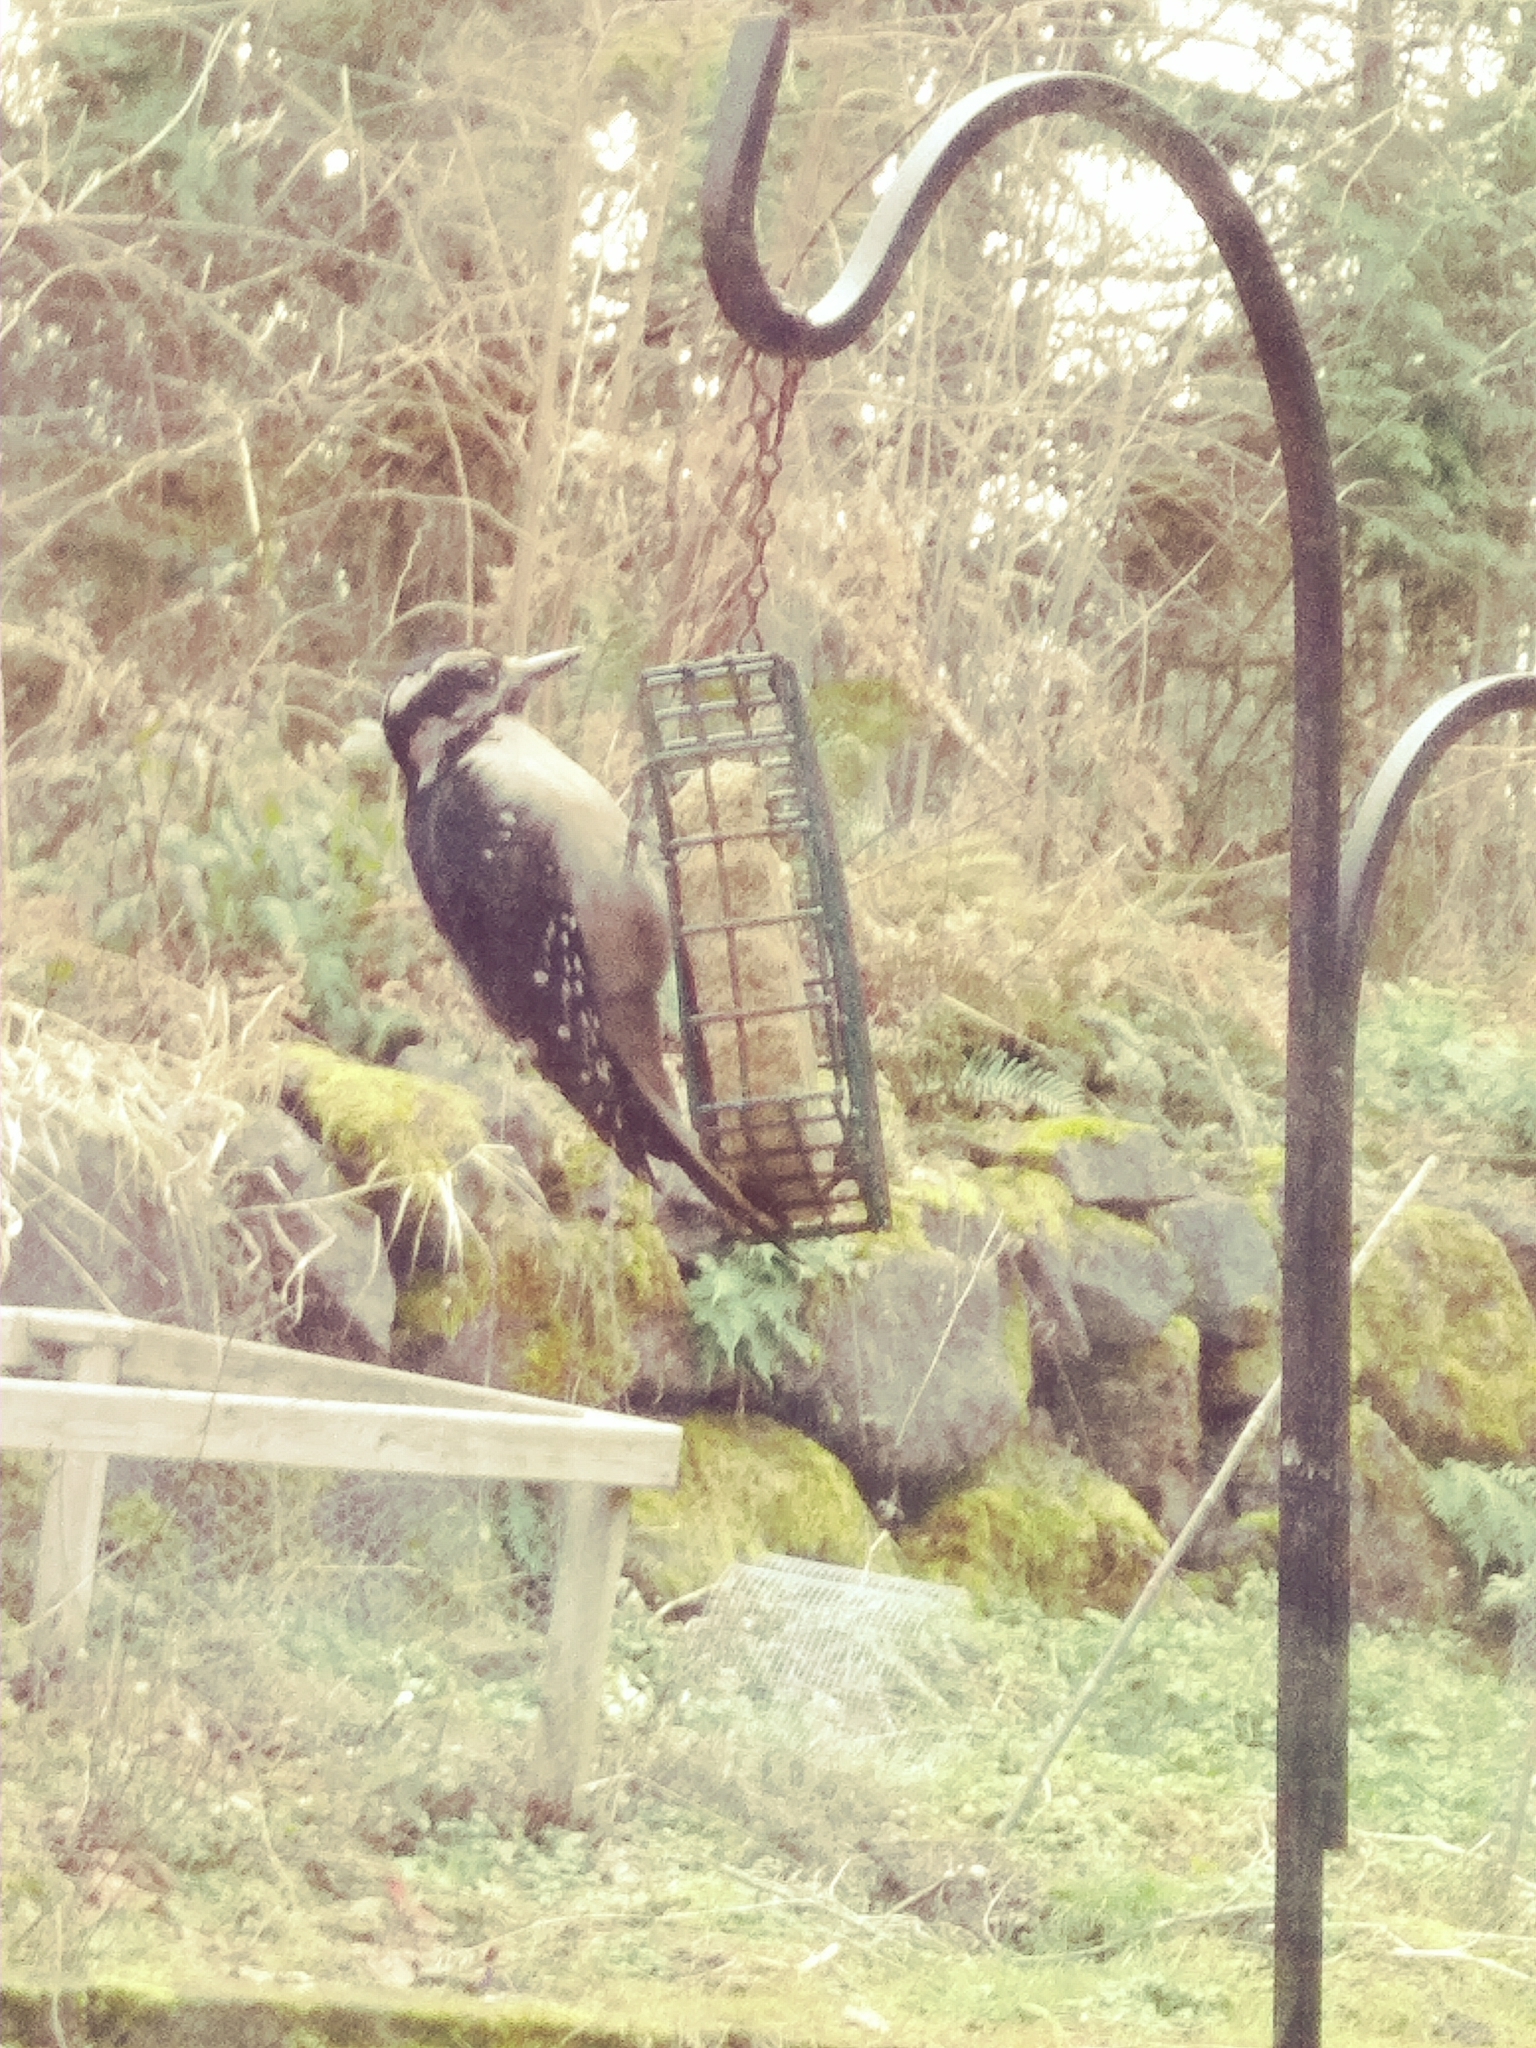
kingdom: Animalia
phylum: Chordata
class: Aves
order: Piciformes
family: Picidae
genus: Leuconotopicus
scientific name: Leuconotopicus villosus
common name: Hairy woodpecker
